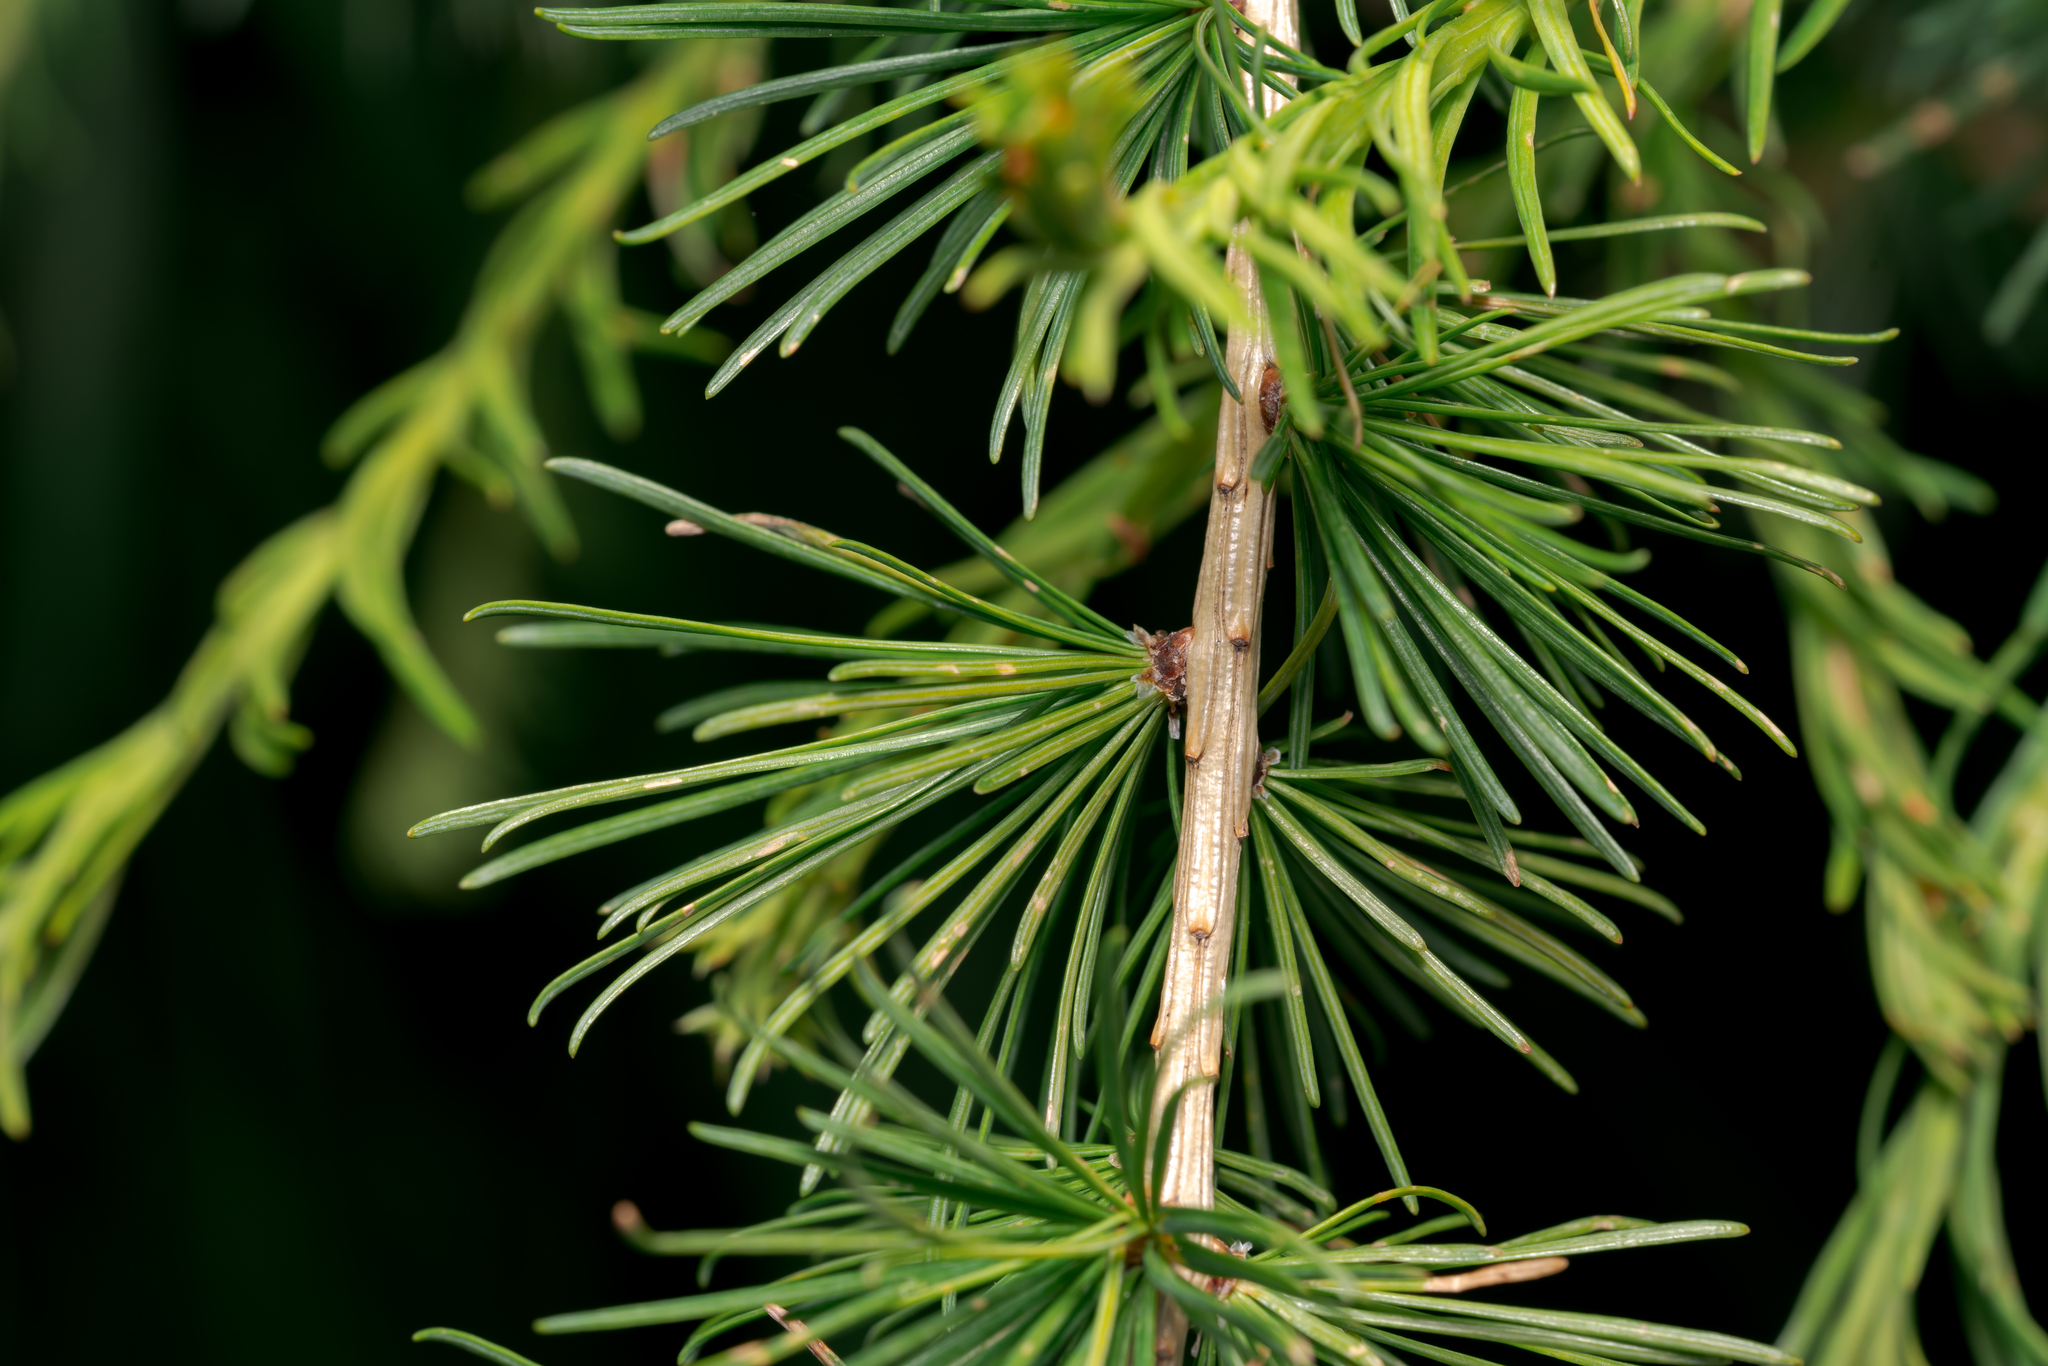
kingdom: Plantae
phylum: Tracheophyta
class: Pinopsida
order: Pinales
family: Pinaceae
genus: Larix
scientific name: Larix decidua
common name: European larch
